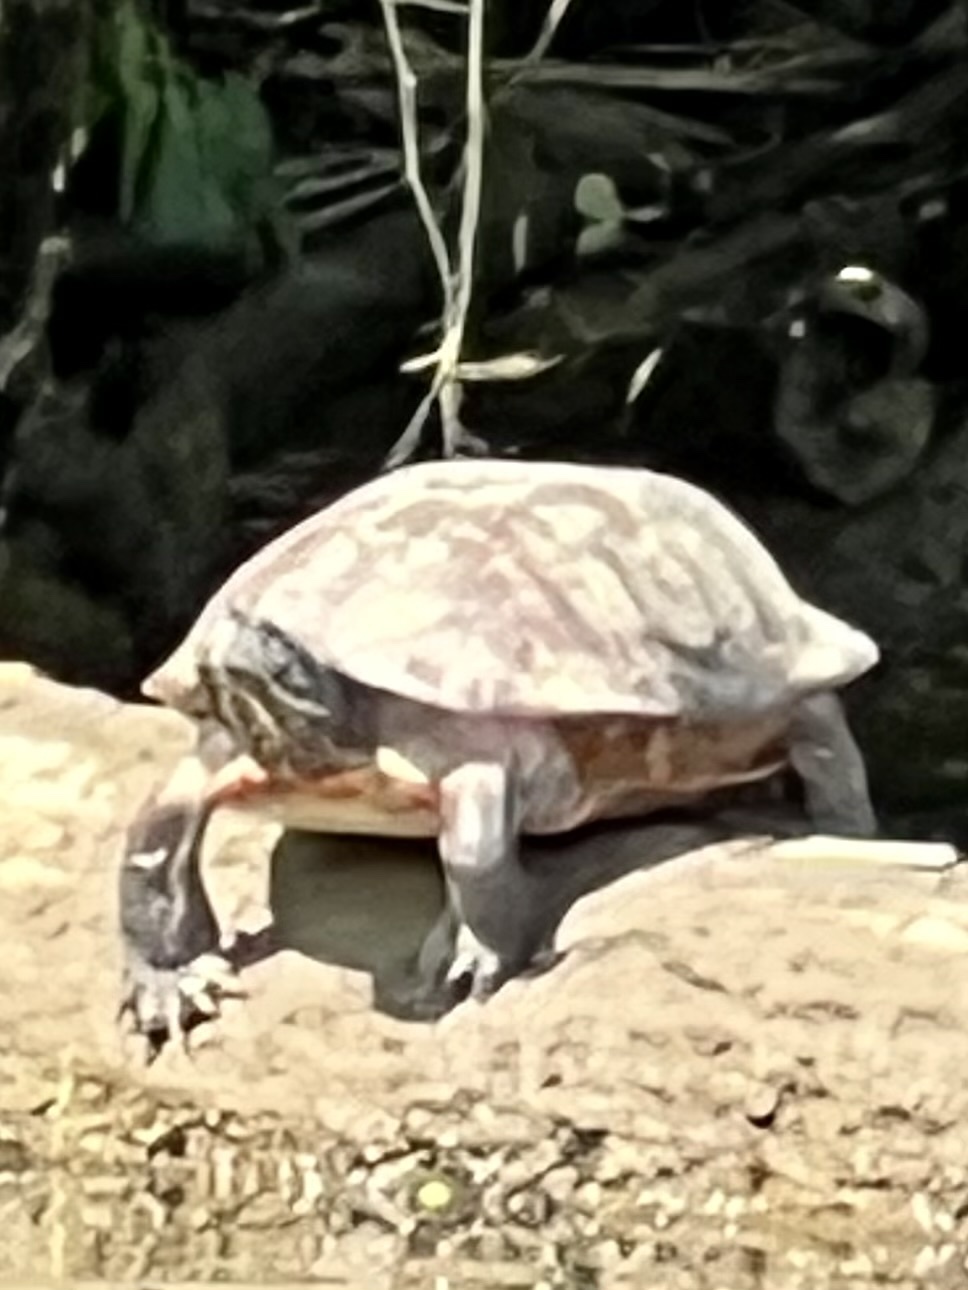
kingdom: Animalia
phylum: Chordata
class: Testudines
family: Emydidae
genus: Pseudemys
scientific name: Pseudemys rubriventris
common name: American red-bellied turtle
